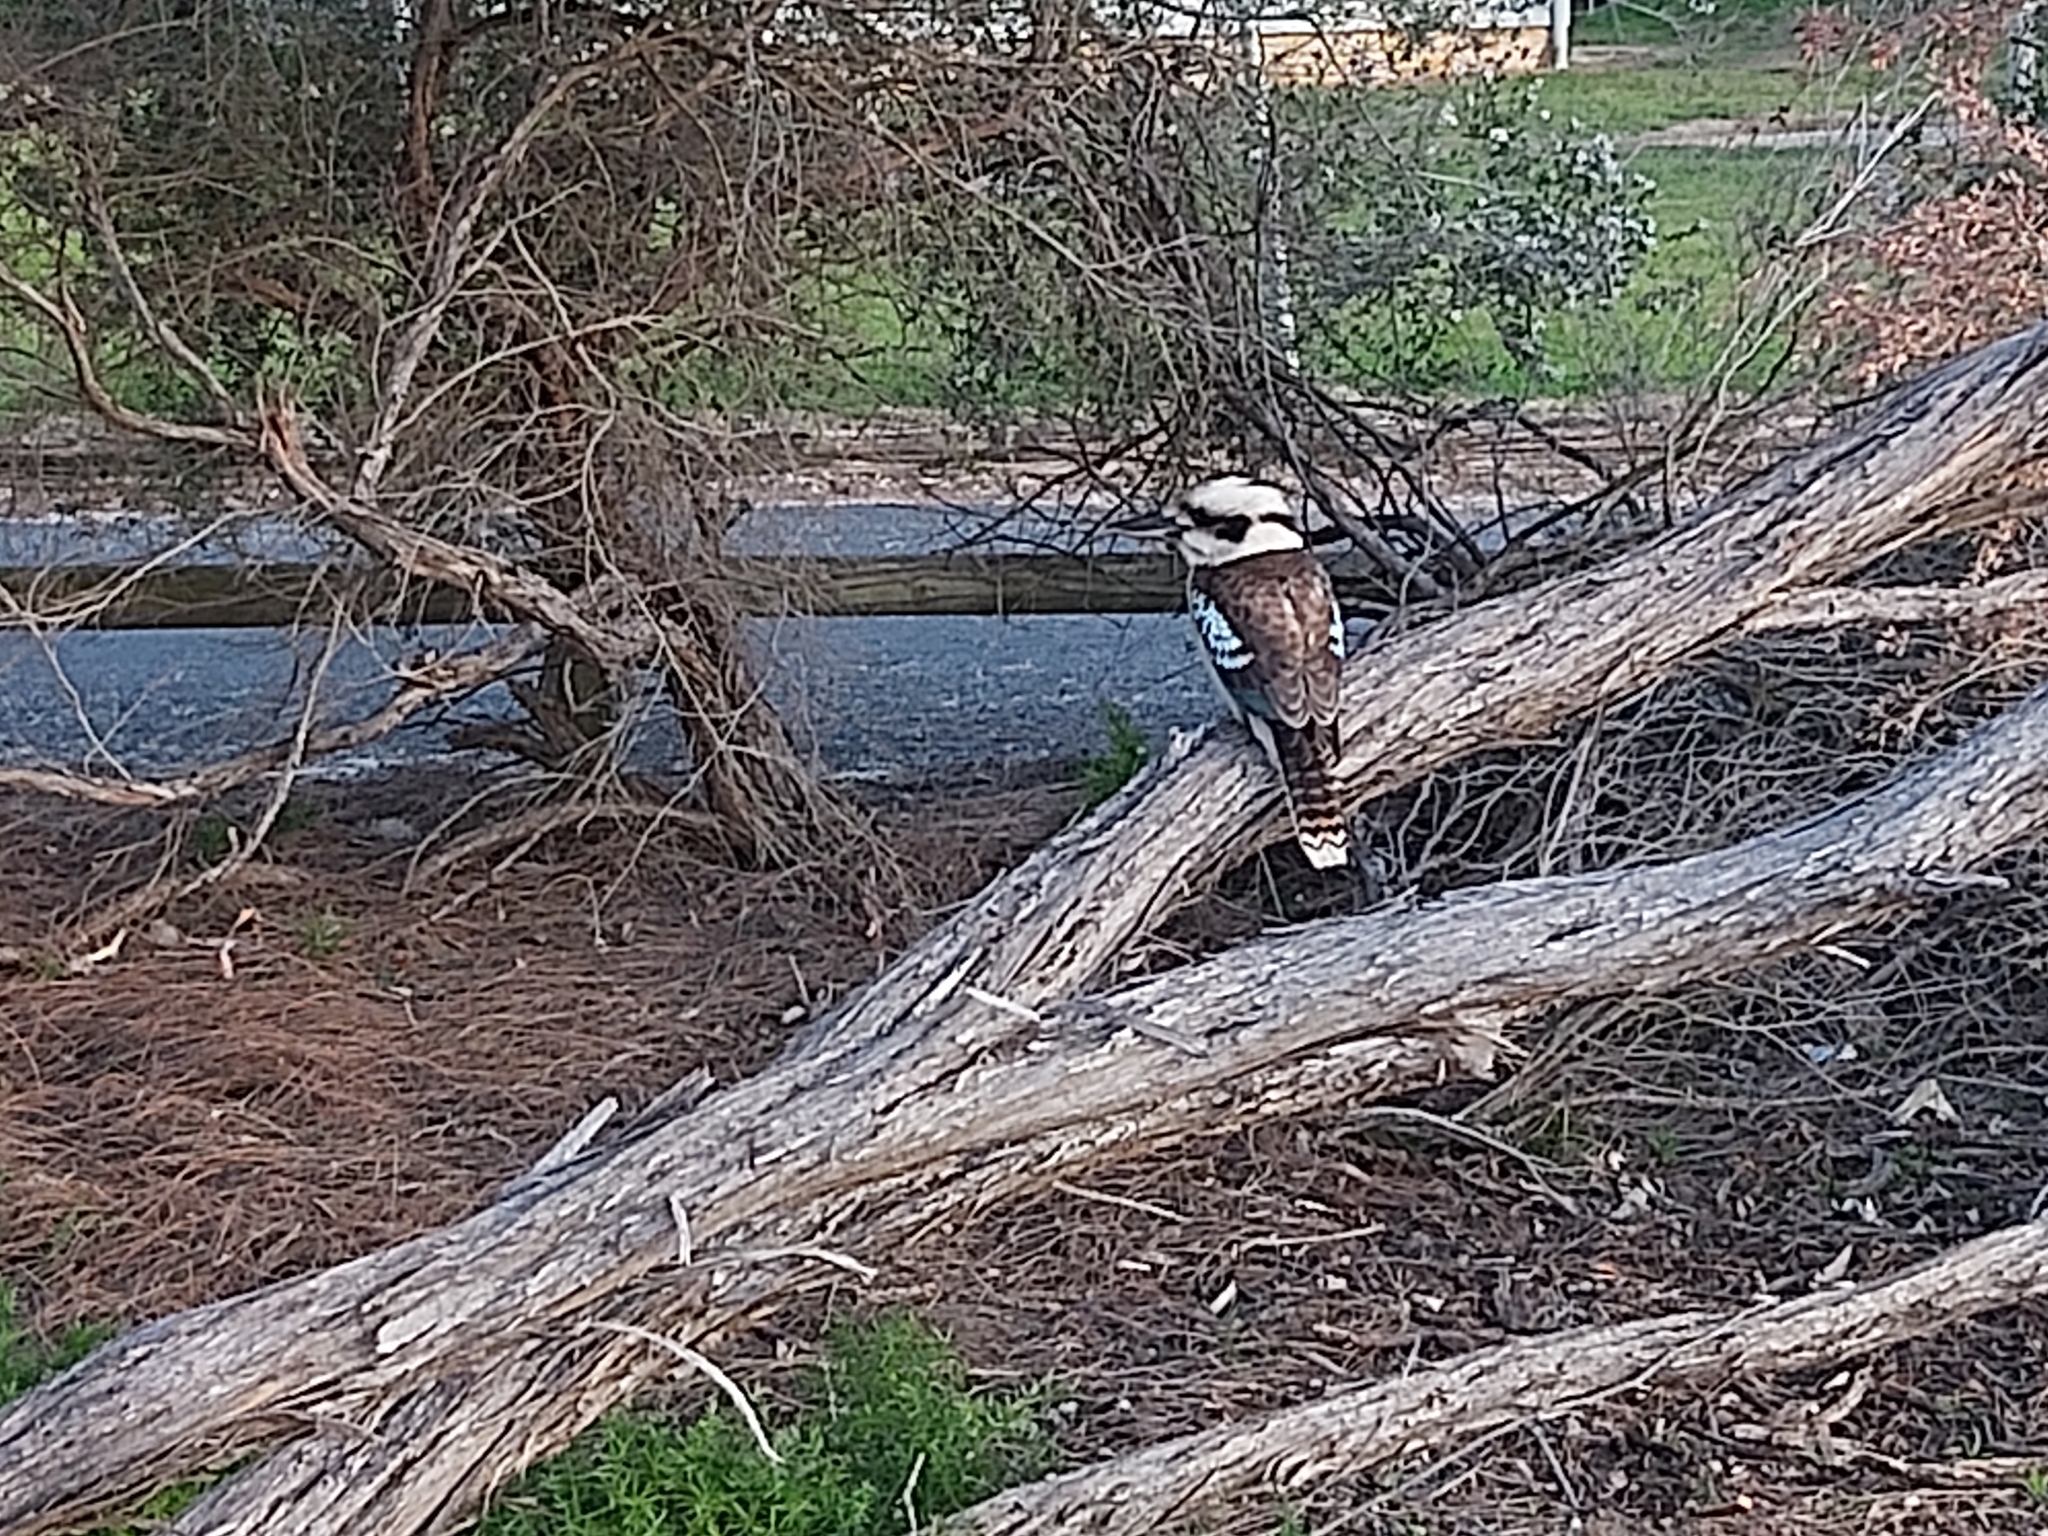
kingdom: Animalia
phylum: Chordata
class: Aves
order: Coraciiformes
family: Alcedinidae
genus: Dacelo
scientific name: Dacelo novaeguineae
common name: Laughing kookaburra
